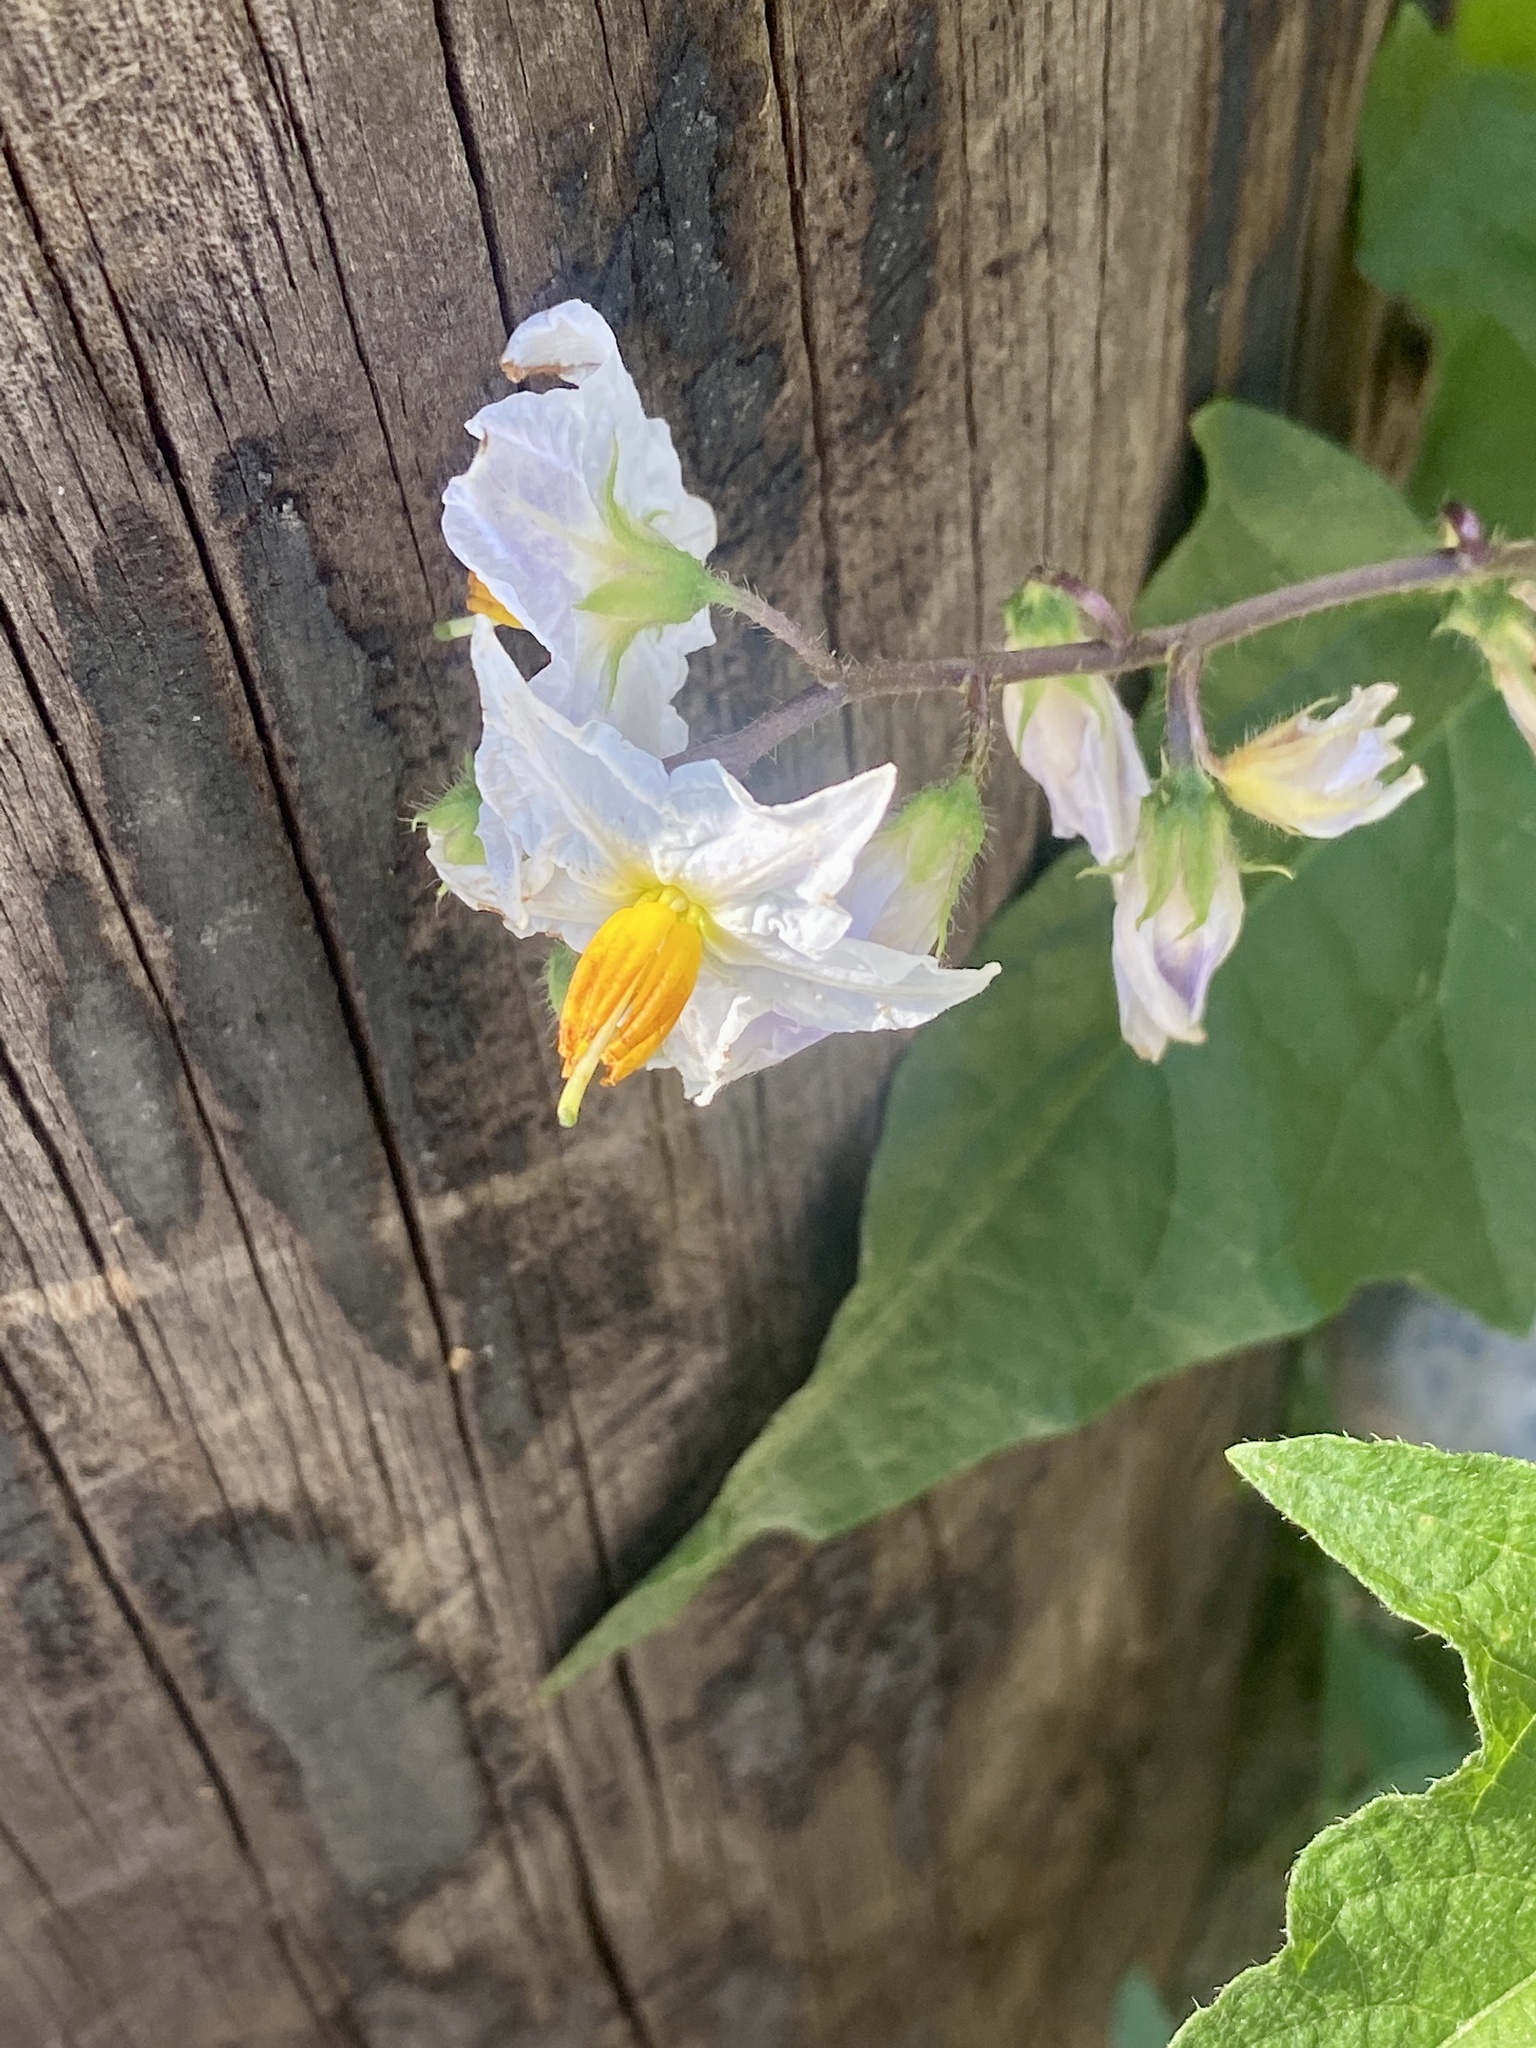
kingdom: Plantae
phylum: Tracheophyta
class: Magnoliopsida
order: Solanales
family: Solanaceae
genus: Solanum
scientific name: Solanum carolinense
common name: Horse-nettle
